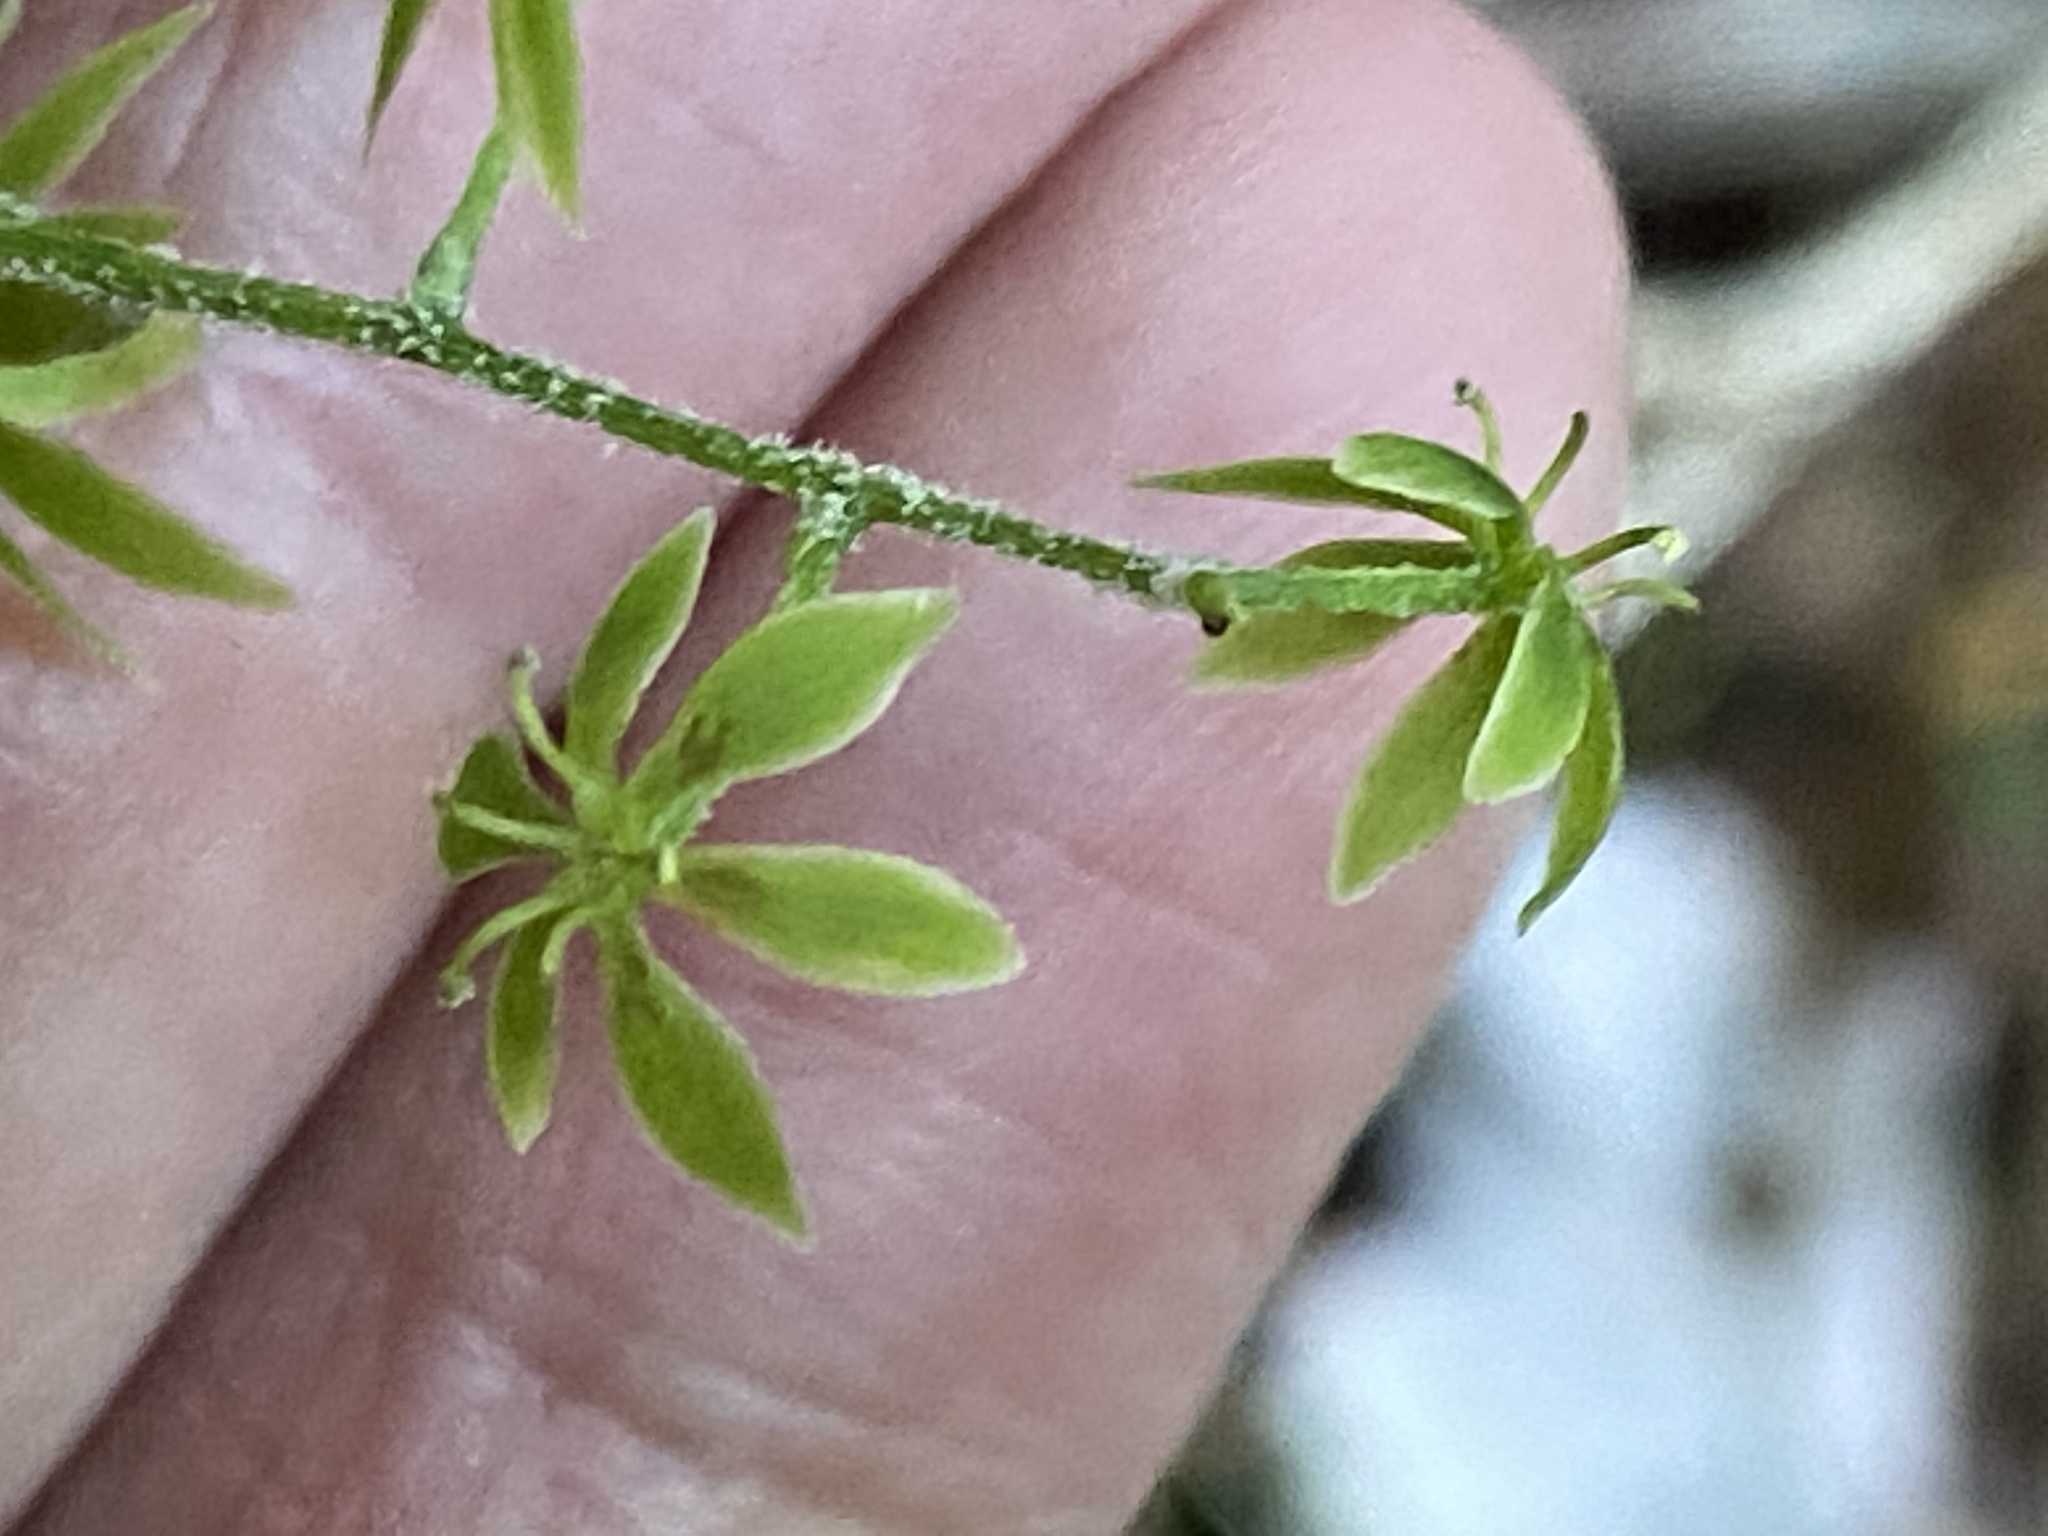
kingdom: Plantae
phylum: Tracheophyta
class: Liliopsida
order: Liliales
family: Melanthiaceae
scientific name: Melanthiaceae
